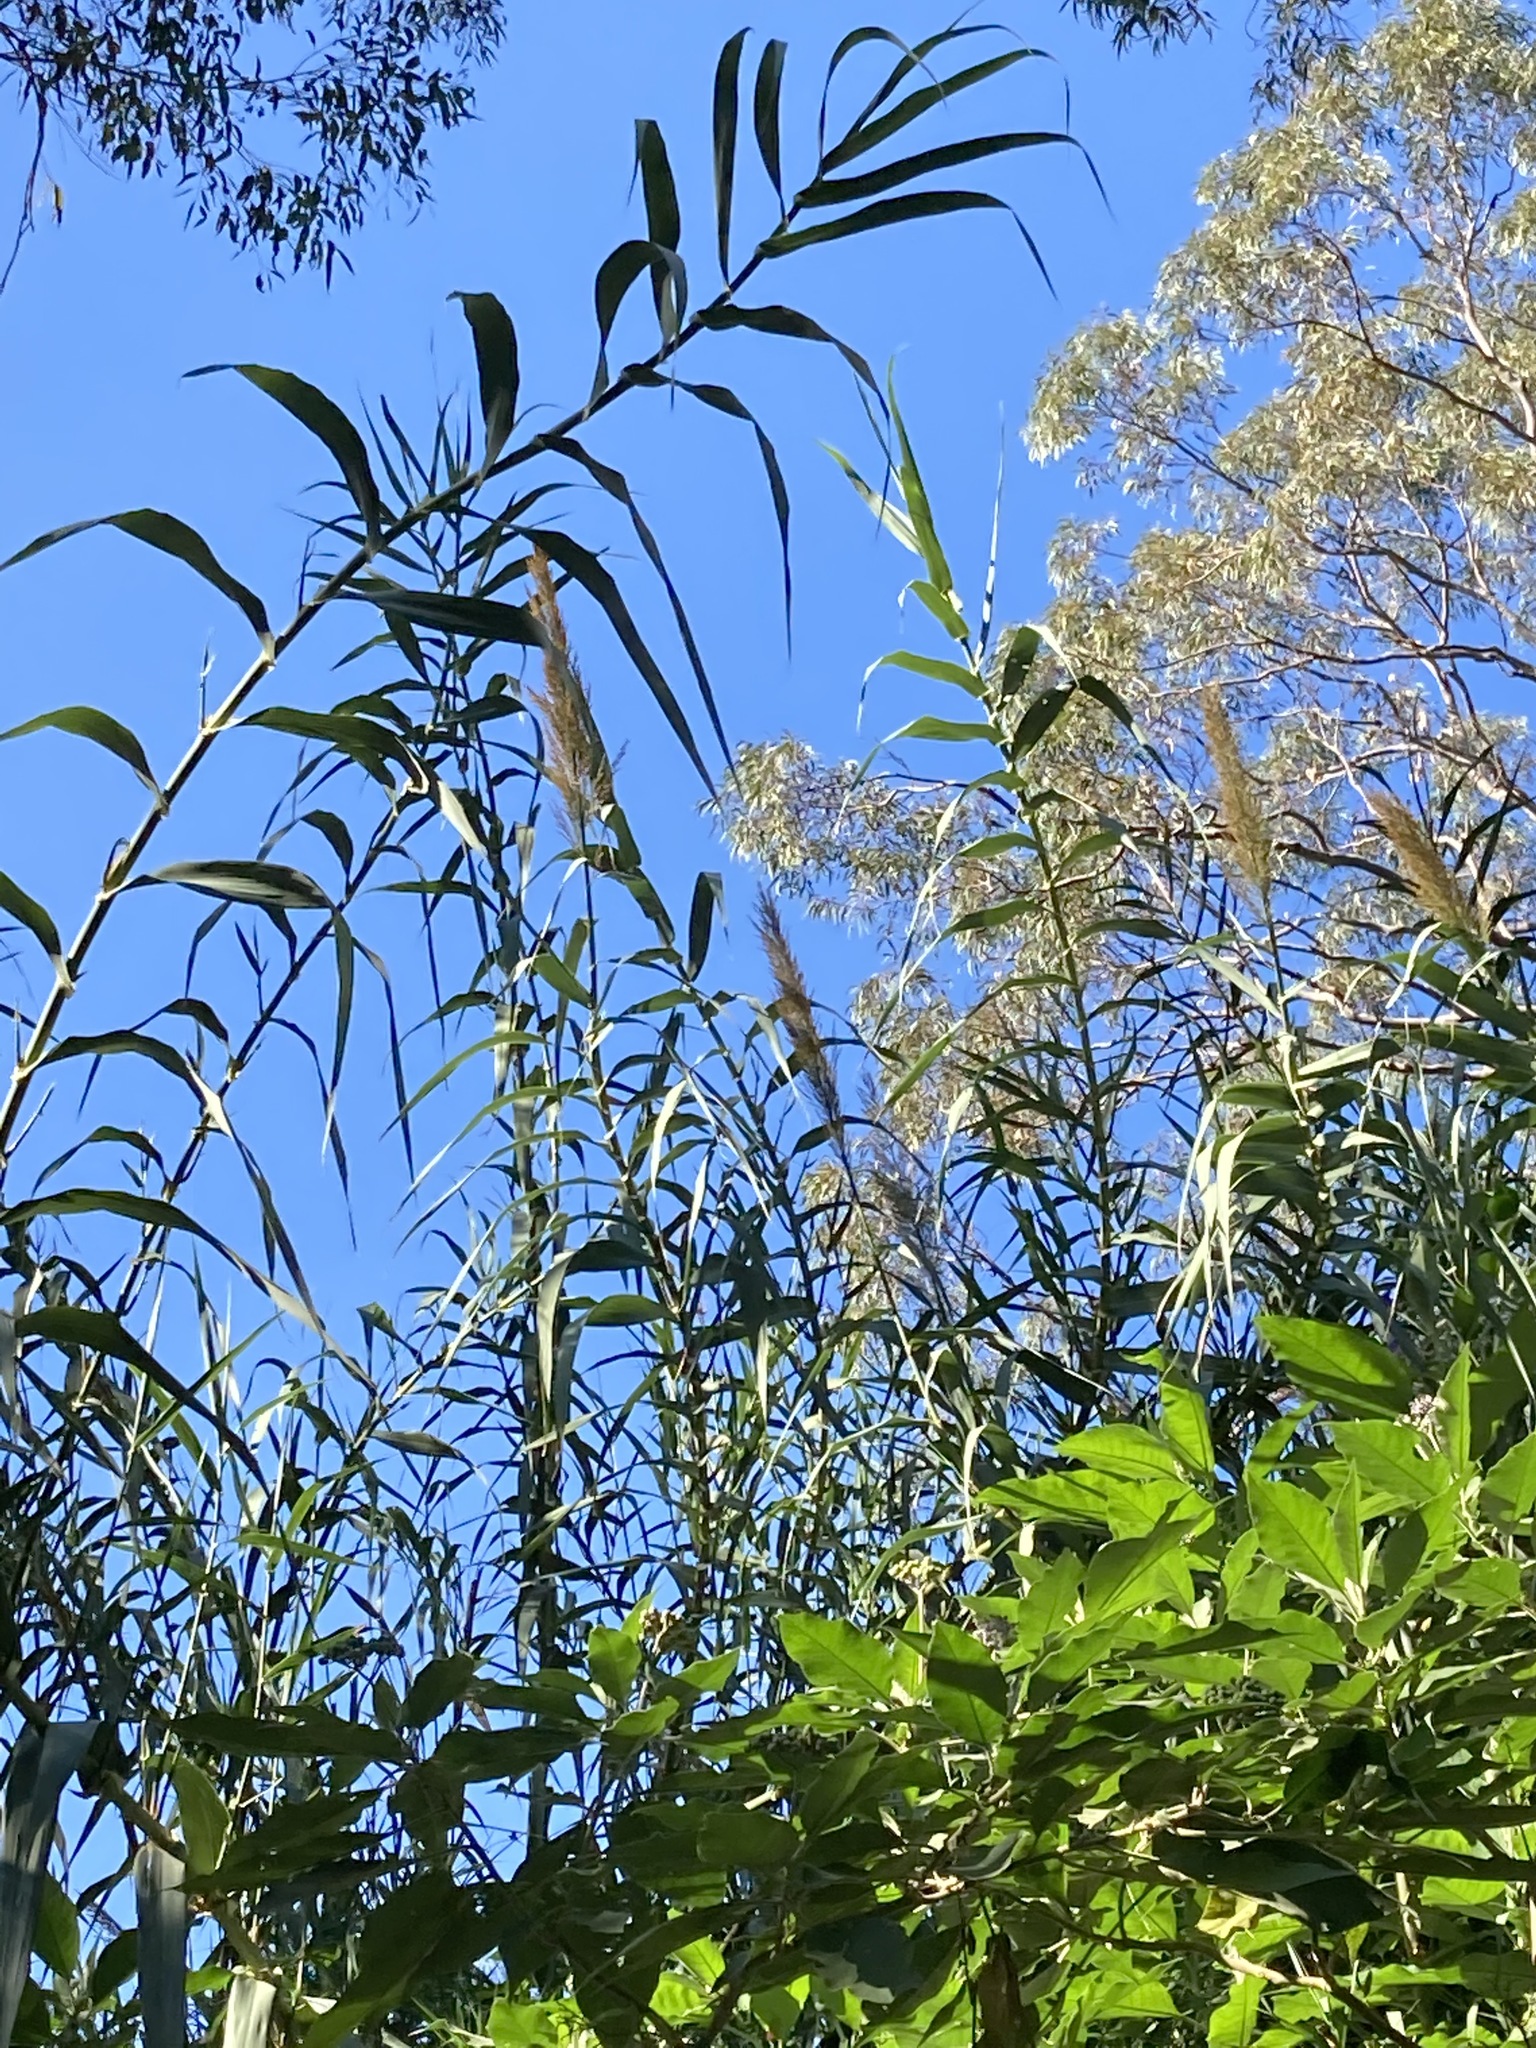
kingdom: Plantae
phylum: Tracheophyta
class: Liliopsida
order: Poales
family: Poaceae
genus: Arundo
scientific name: Arundo donax
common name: Giant reed
